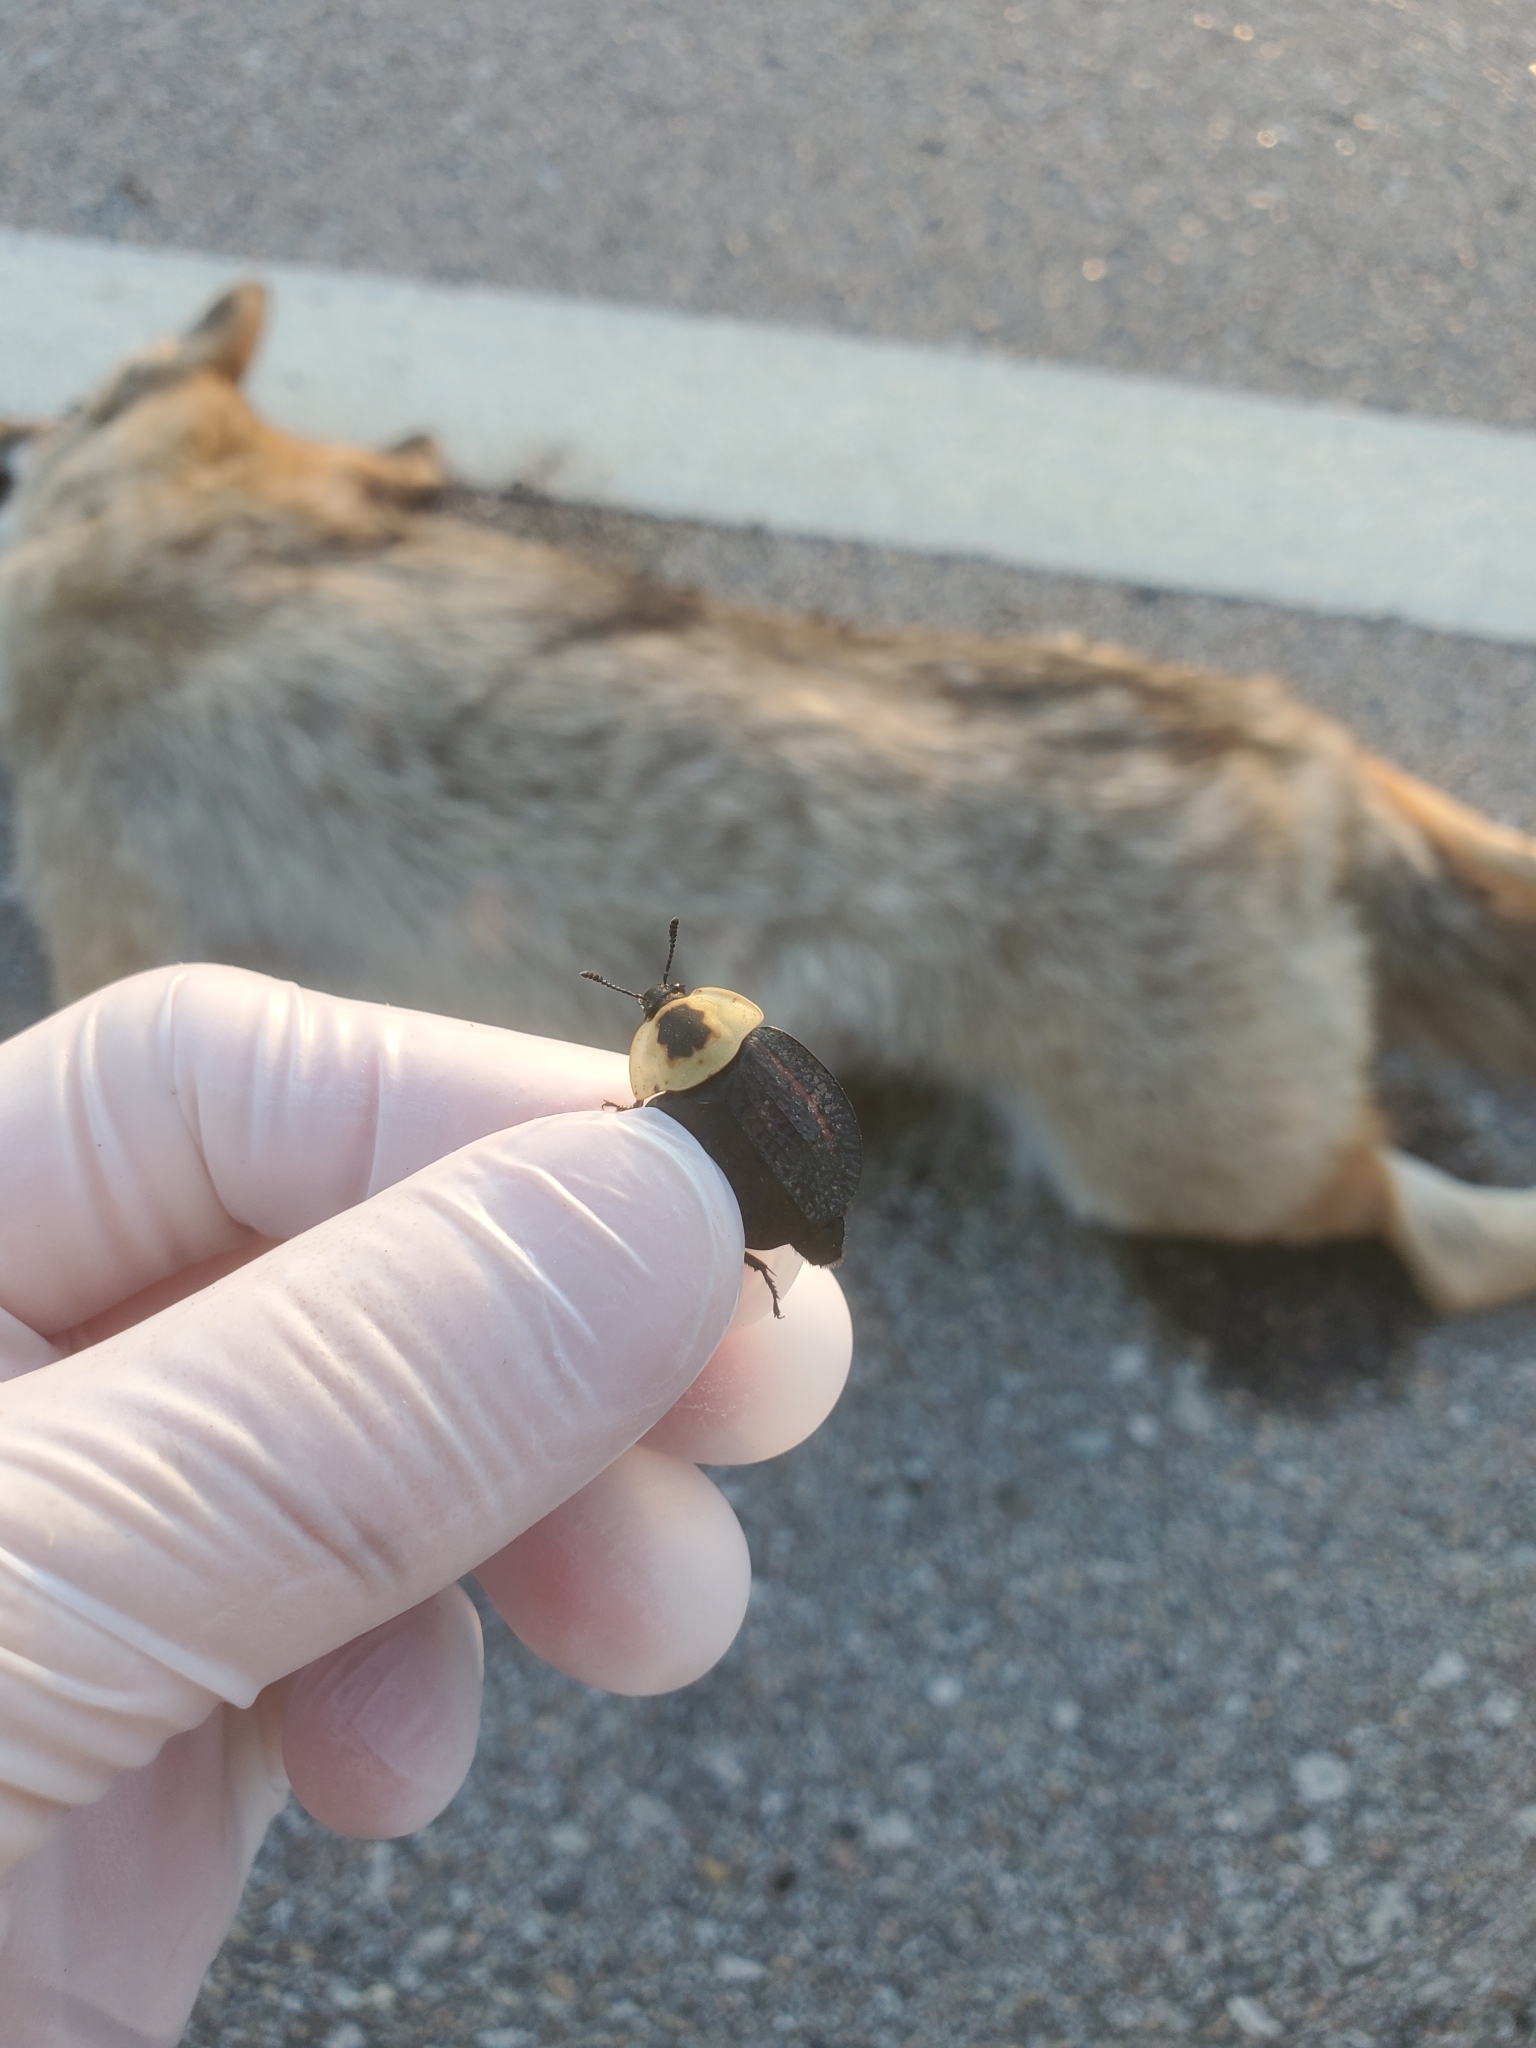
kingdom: Animalia
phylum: Arthropoda
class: Insecta
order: Coleoptera
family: Staphylinidae
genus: Necrophila
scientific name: Necrophila americana
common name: American carrion beetle
